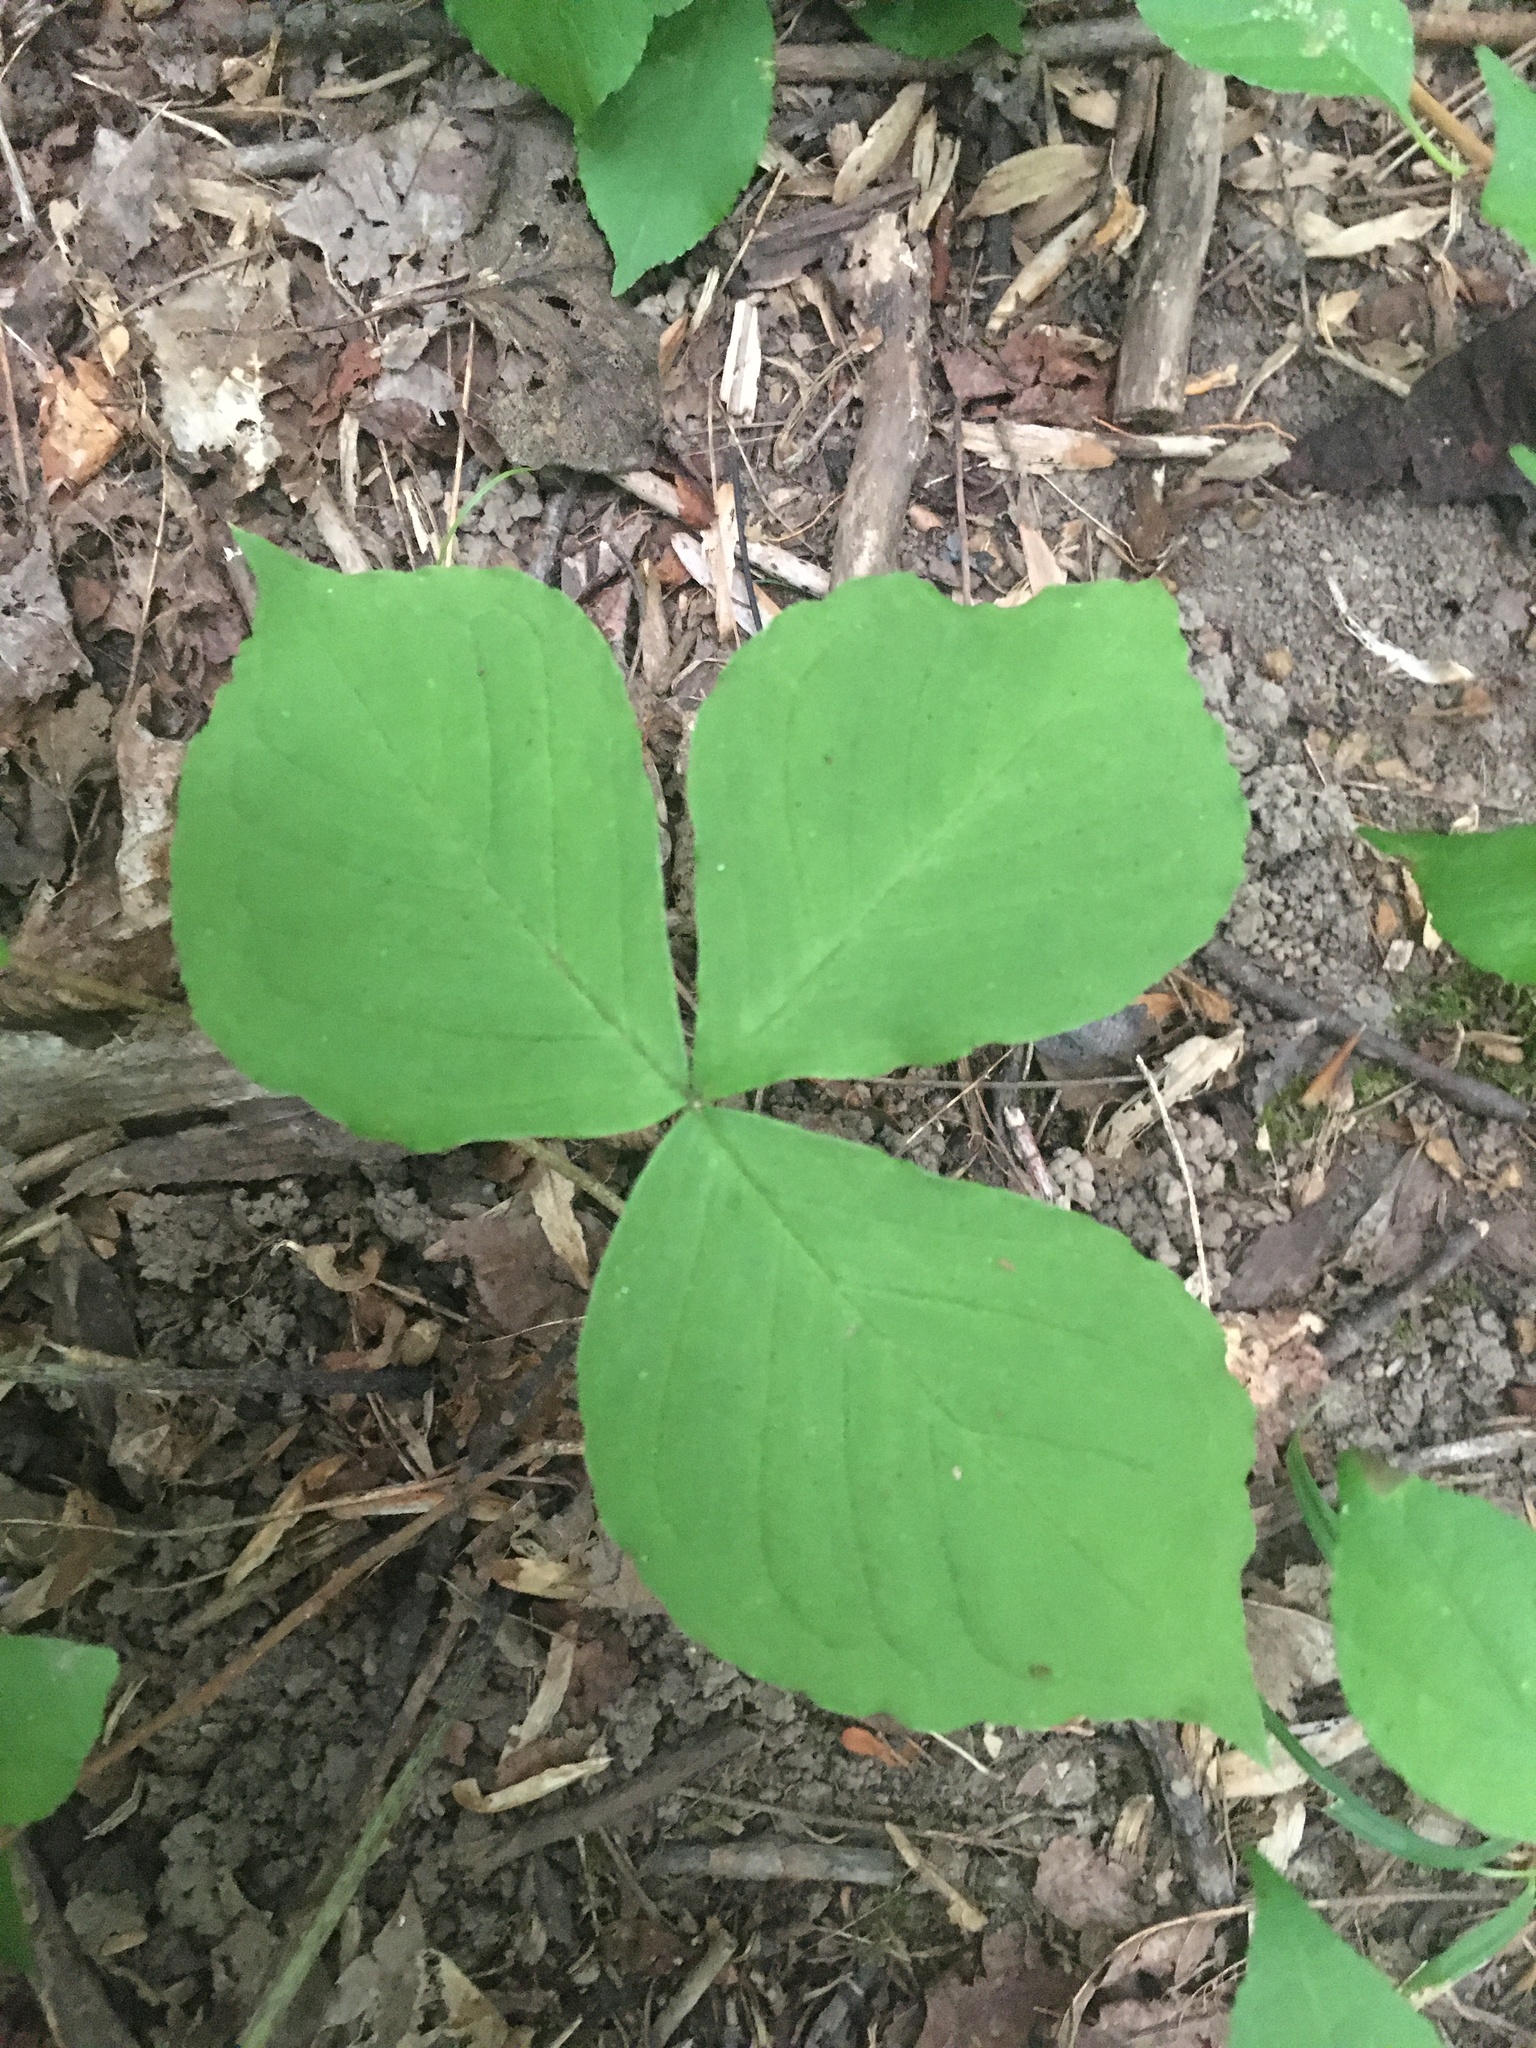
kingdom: Plantae
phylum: Tracheophyta
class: Liliopsida
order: Alismatales
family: Araceae
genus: Arisaema
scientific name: Arisaema triphyllum
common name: Jack-in-the-pulpit
